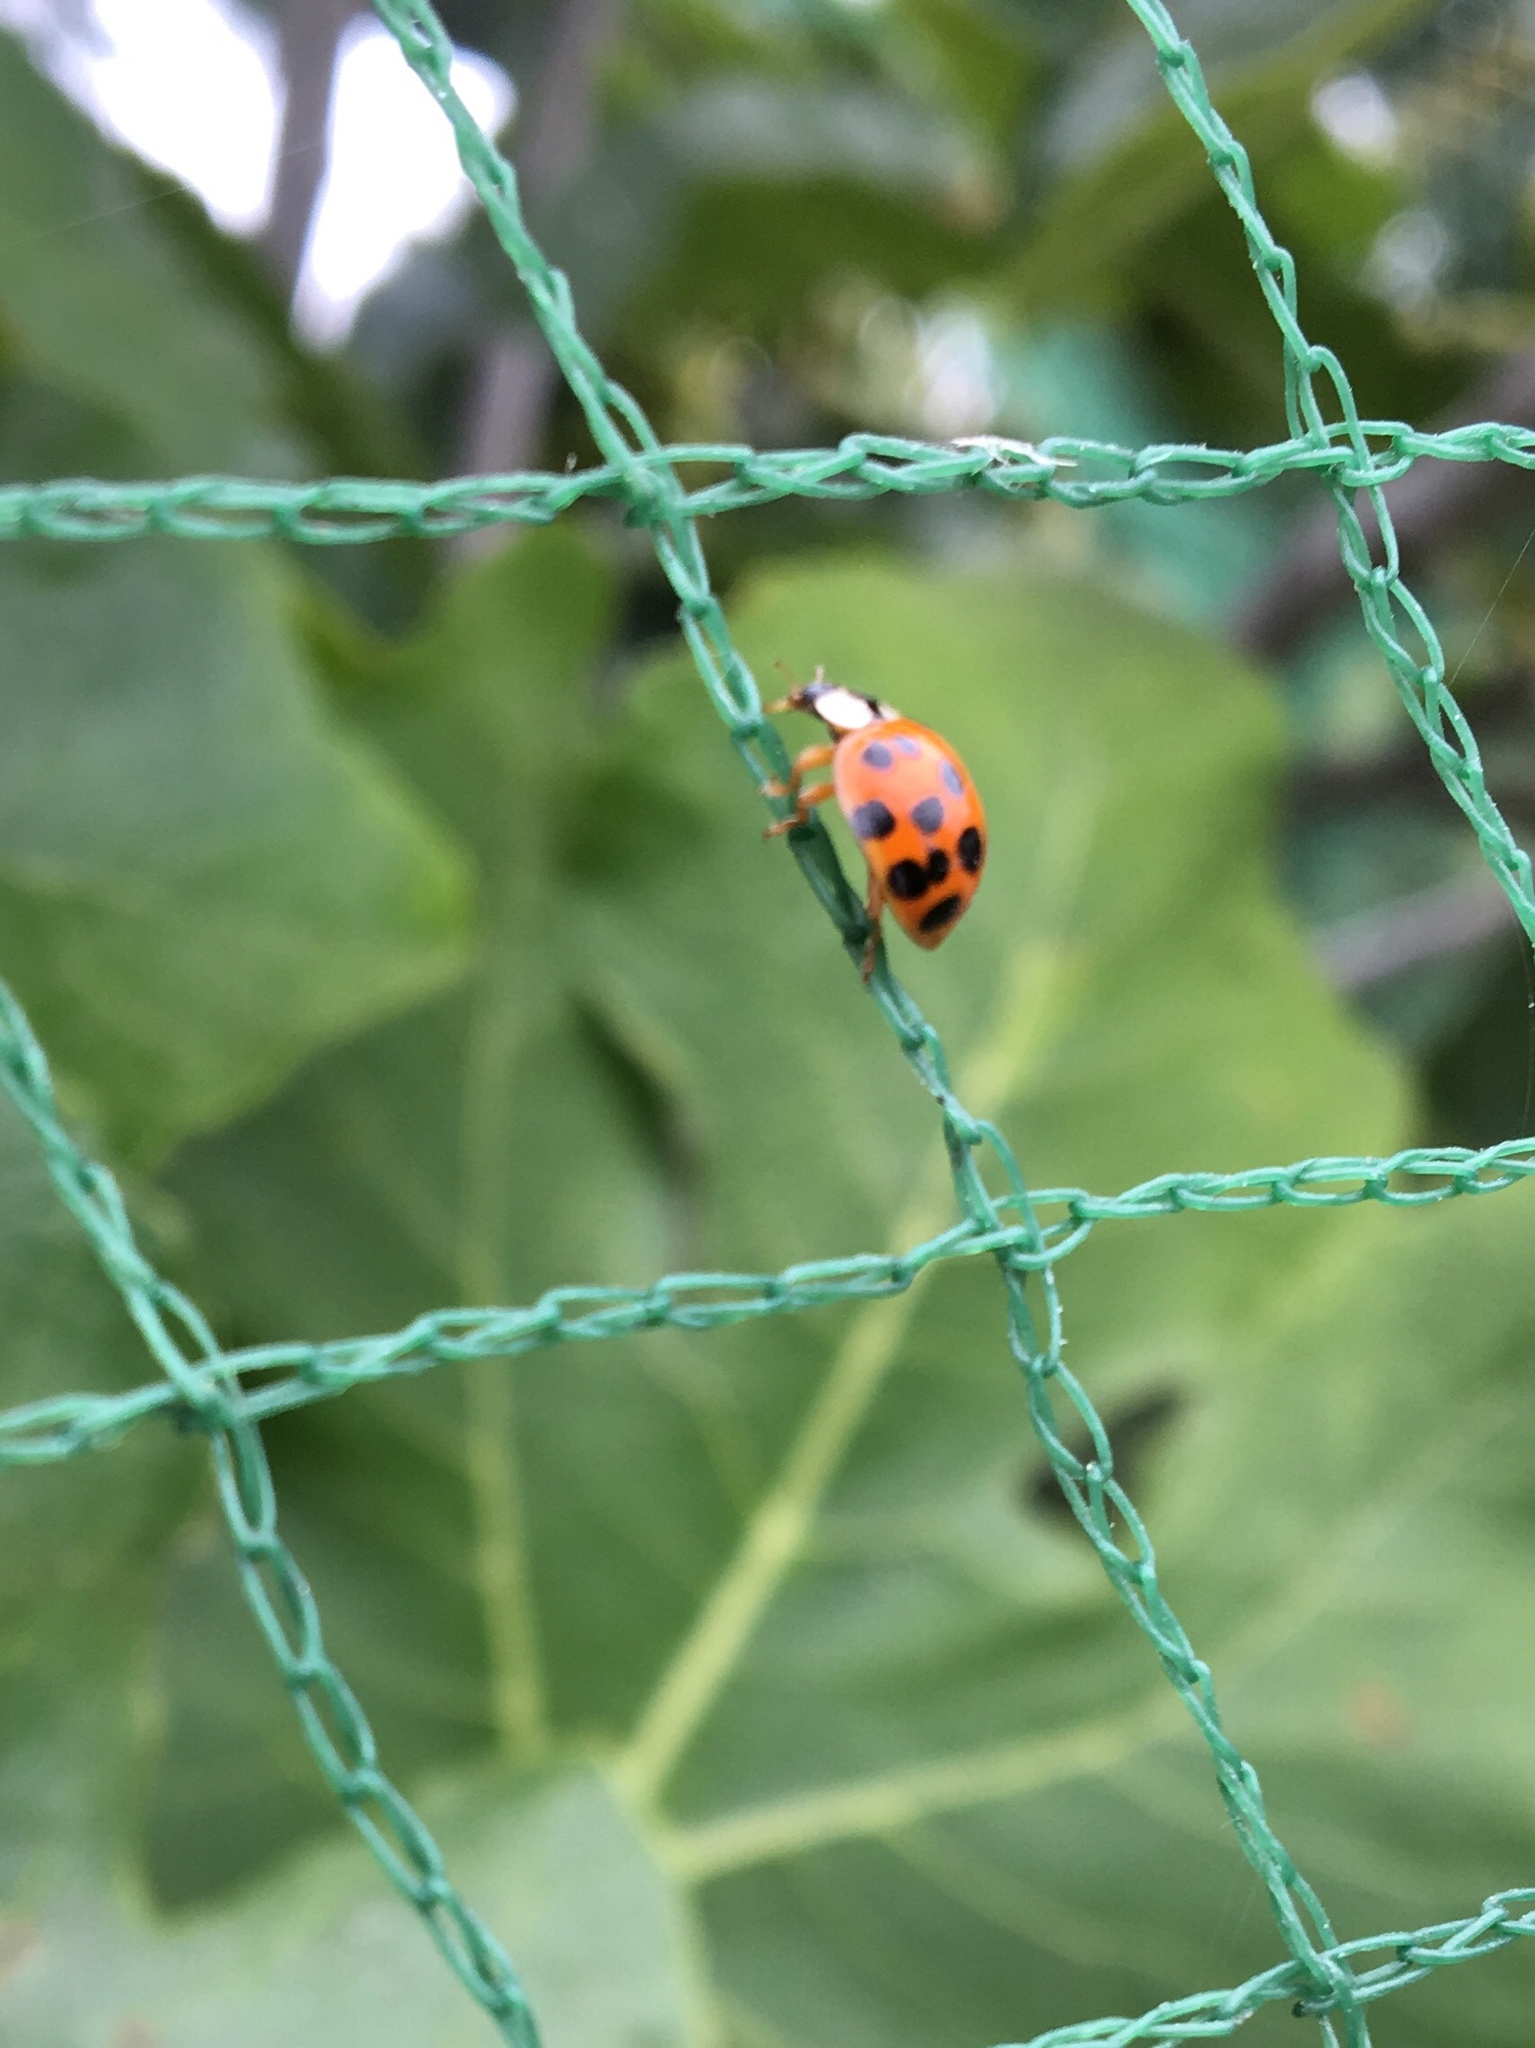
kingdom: Animalia
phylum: Arthropoda
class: Insecta
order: Coleoptera
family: Coccinellidae
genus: Harmonia
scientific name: Harmonia axyridis
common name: Harlequin ladybird
